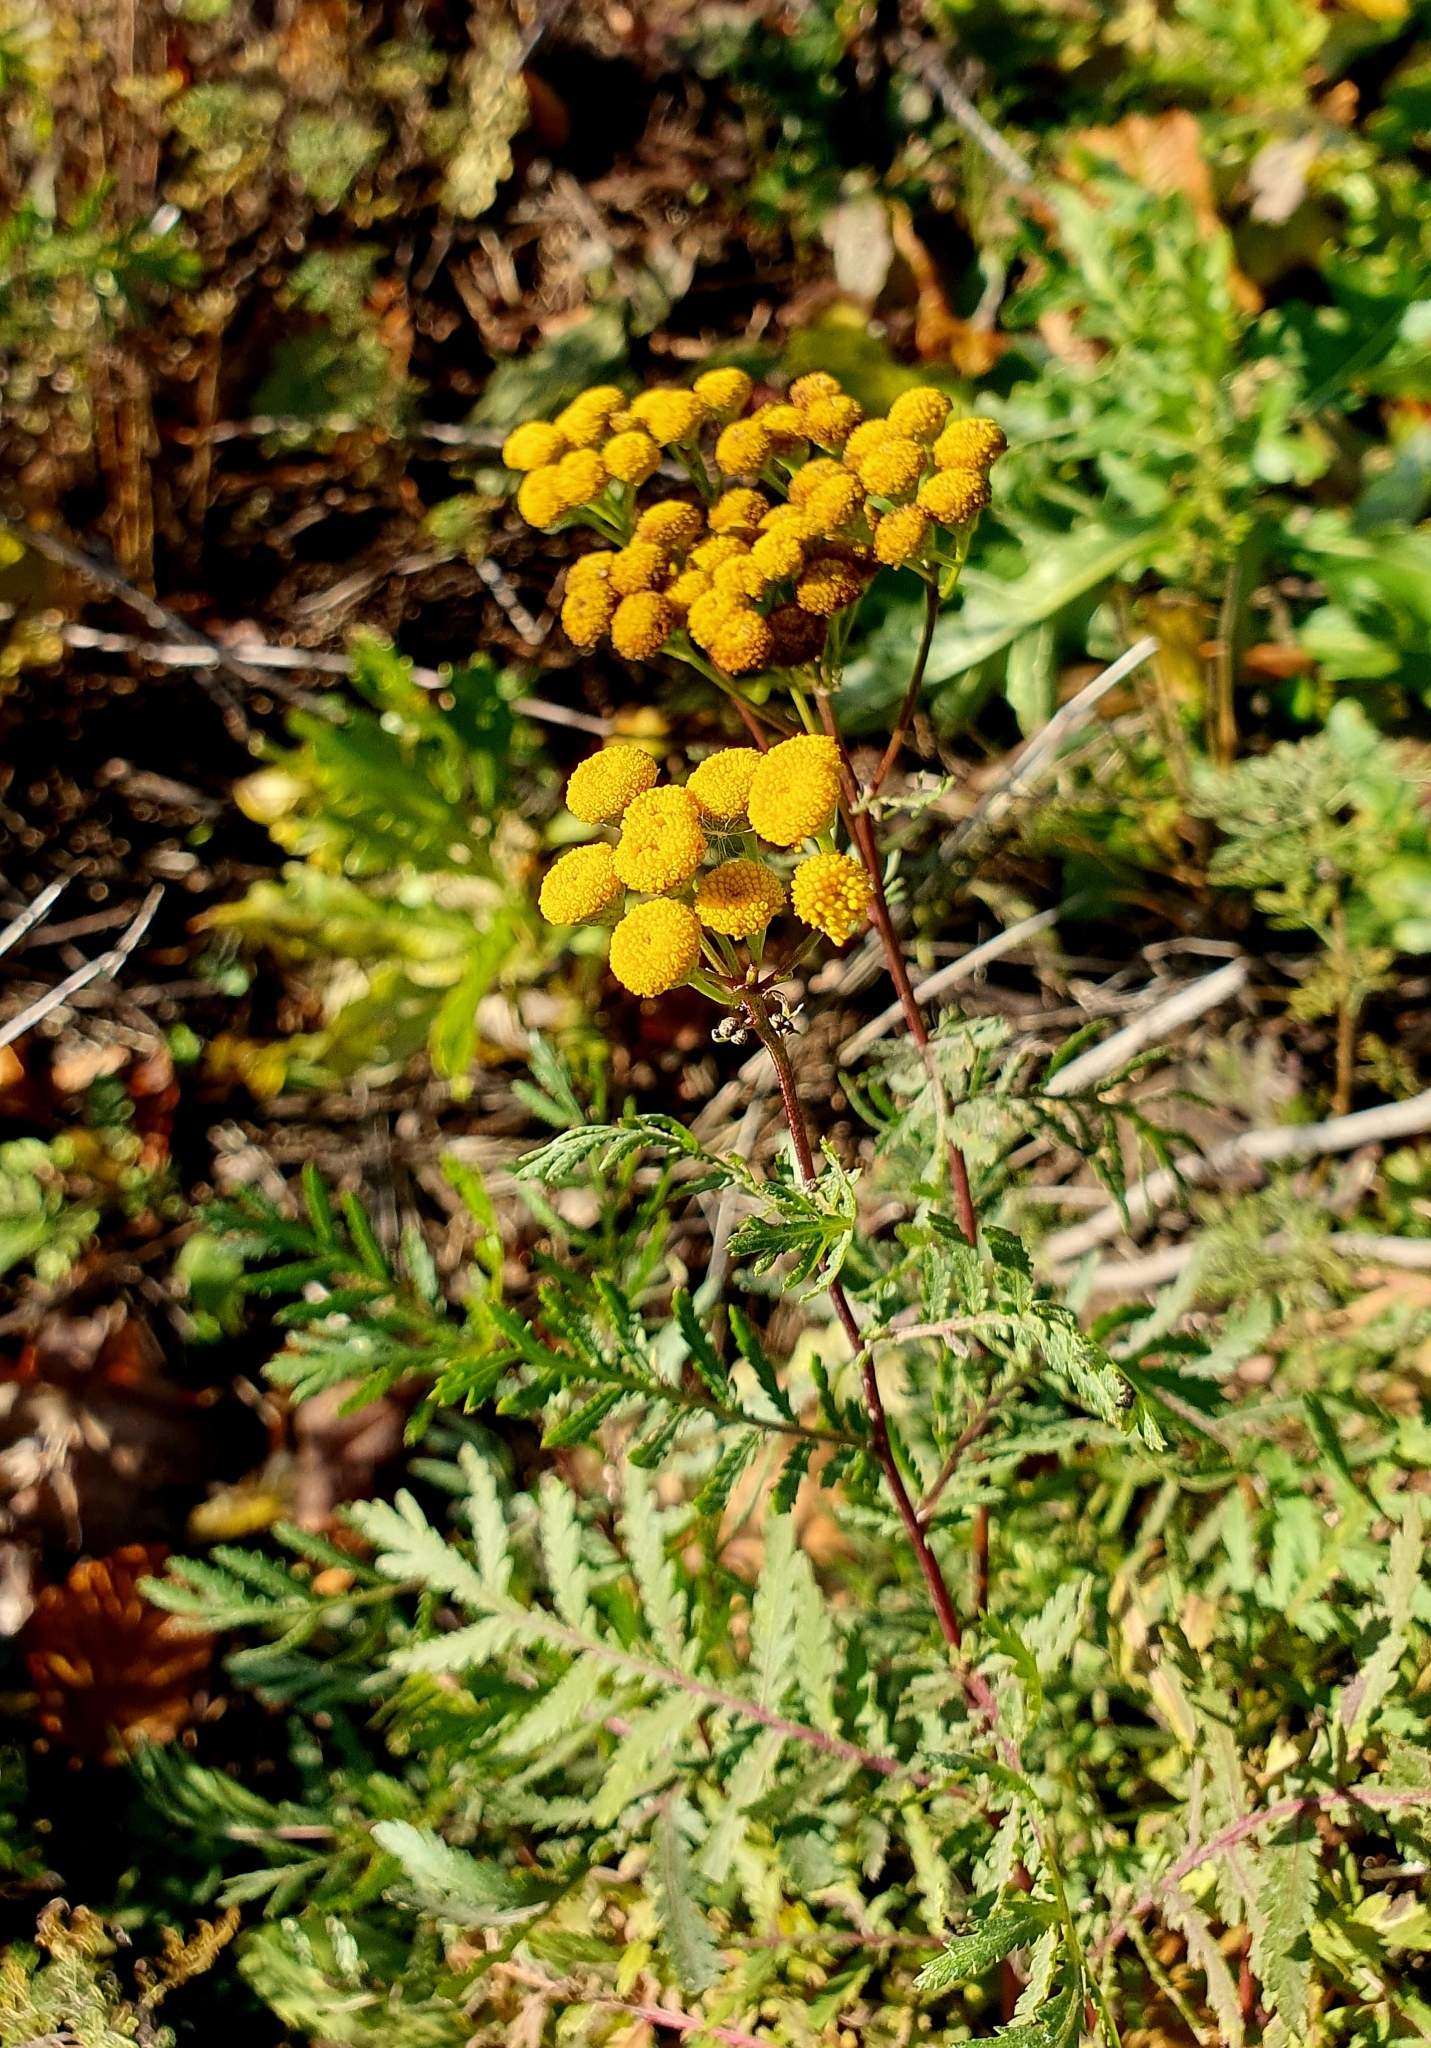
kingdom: Plantae
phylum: Tracheophyta
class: Magnoliopsida
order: Asterales
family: Asteraceae
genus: Tanacetum
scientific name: Tanacetum vulgare
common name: Common tansy
